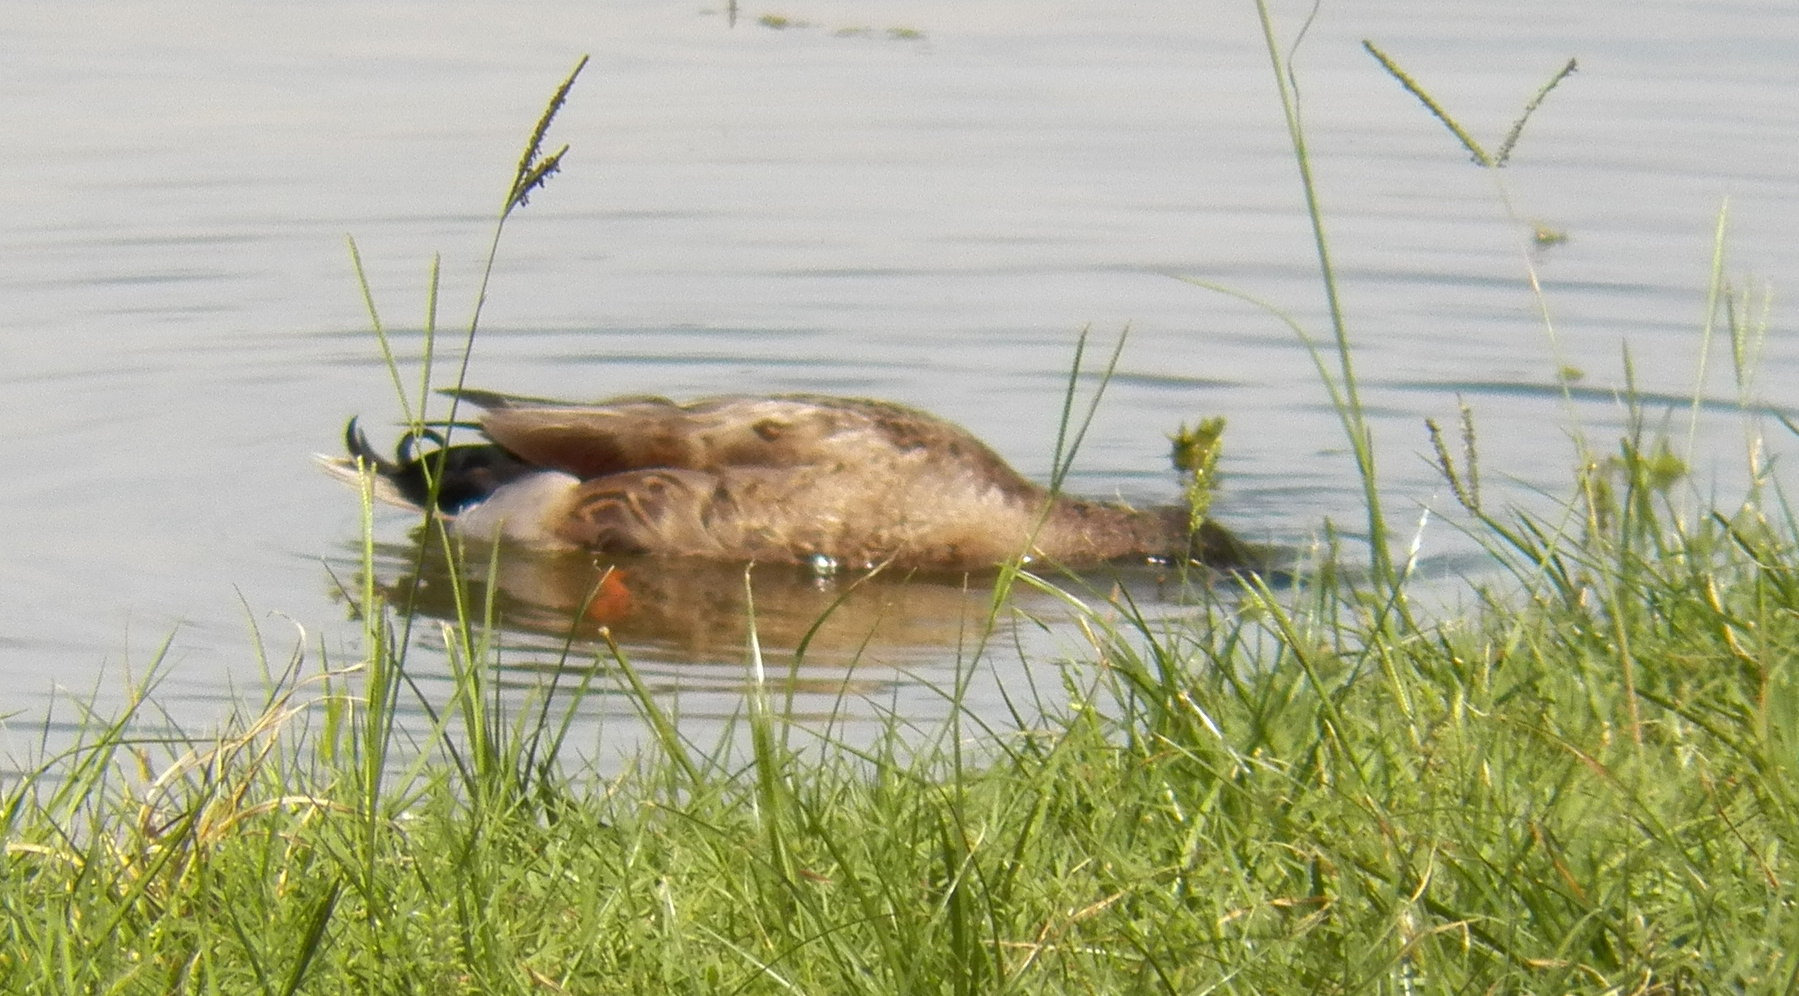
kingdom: Animalia
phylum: Chordata
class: Aves
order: Anseriformes
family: Anatidae
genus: Anas
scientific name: Anas platyrhynchos
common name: Mallard
